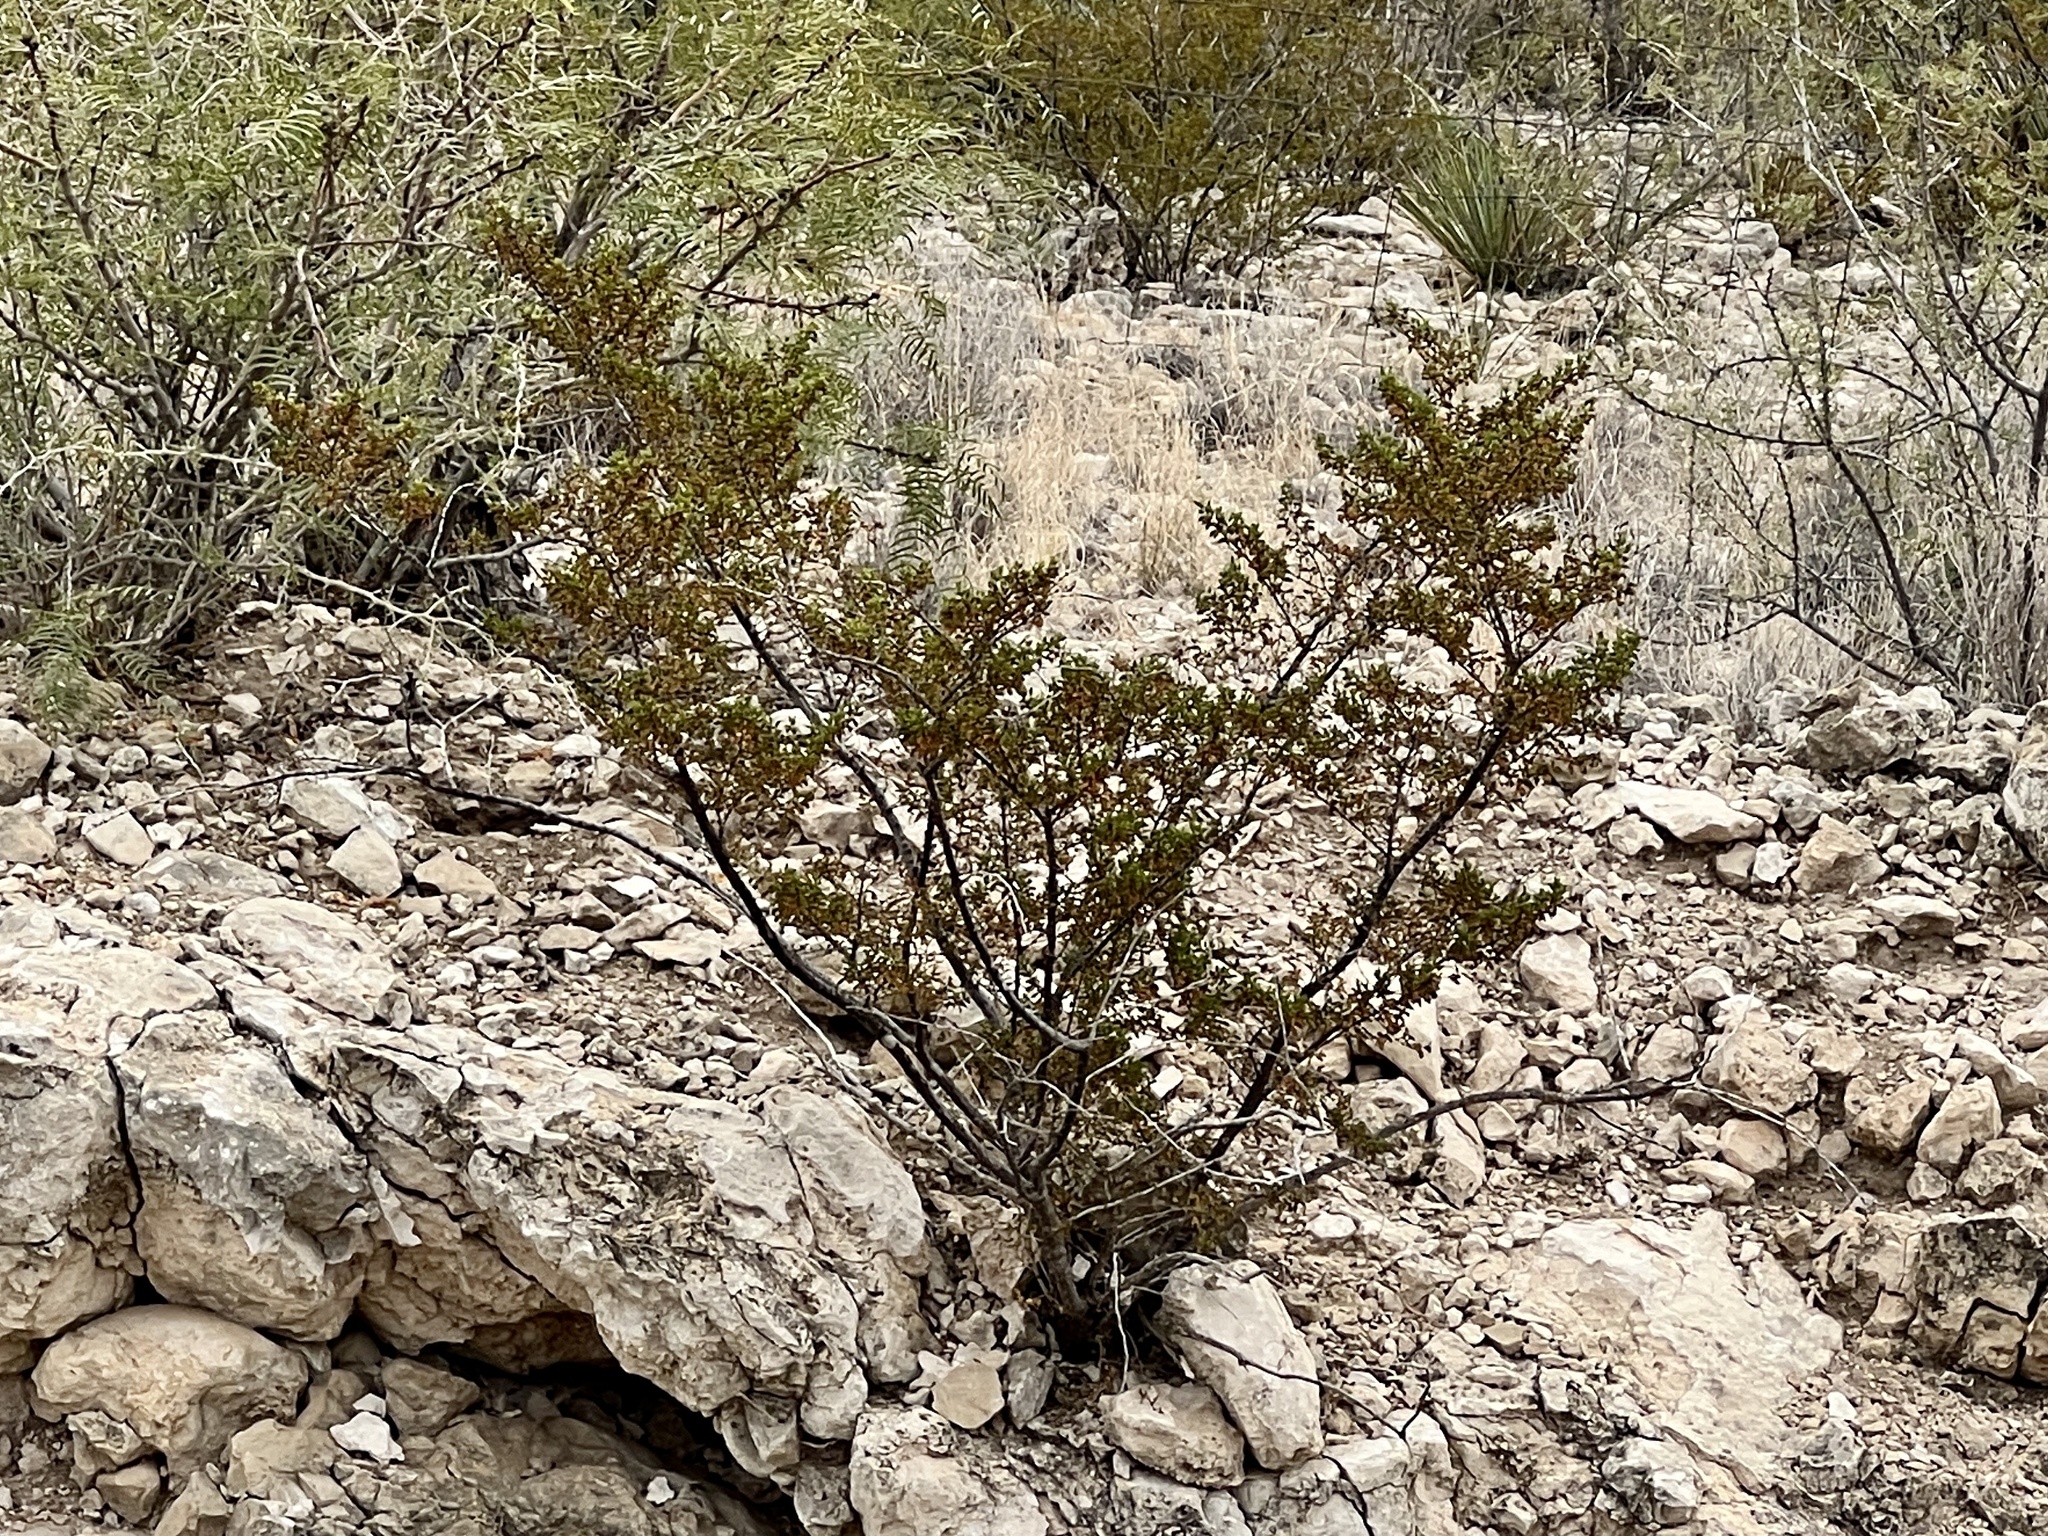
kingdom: Plantae
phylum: Tracheophyta
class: Magnoliopsida
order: Zygophyllales
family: Zygophyllaceae
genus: Larrea
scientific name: Larrea tridentata
